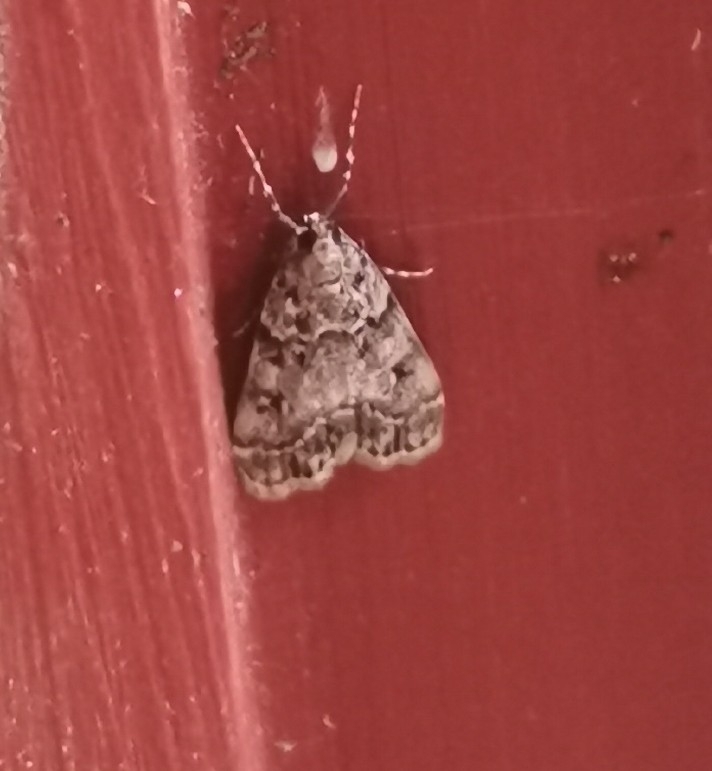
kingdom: Animalia
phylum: Arthropoda
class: Insecta
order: Lepidoptera
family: Crambidae
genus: Eudonia
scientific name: Eudonia lacustrata
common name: Little grey
